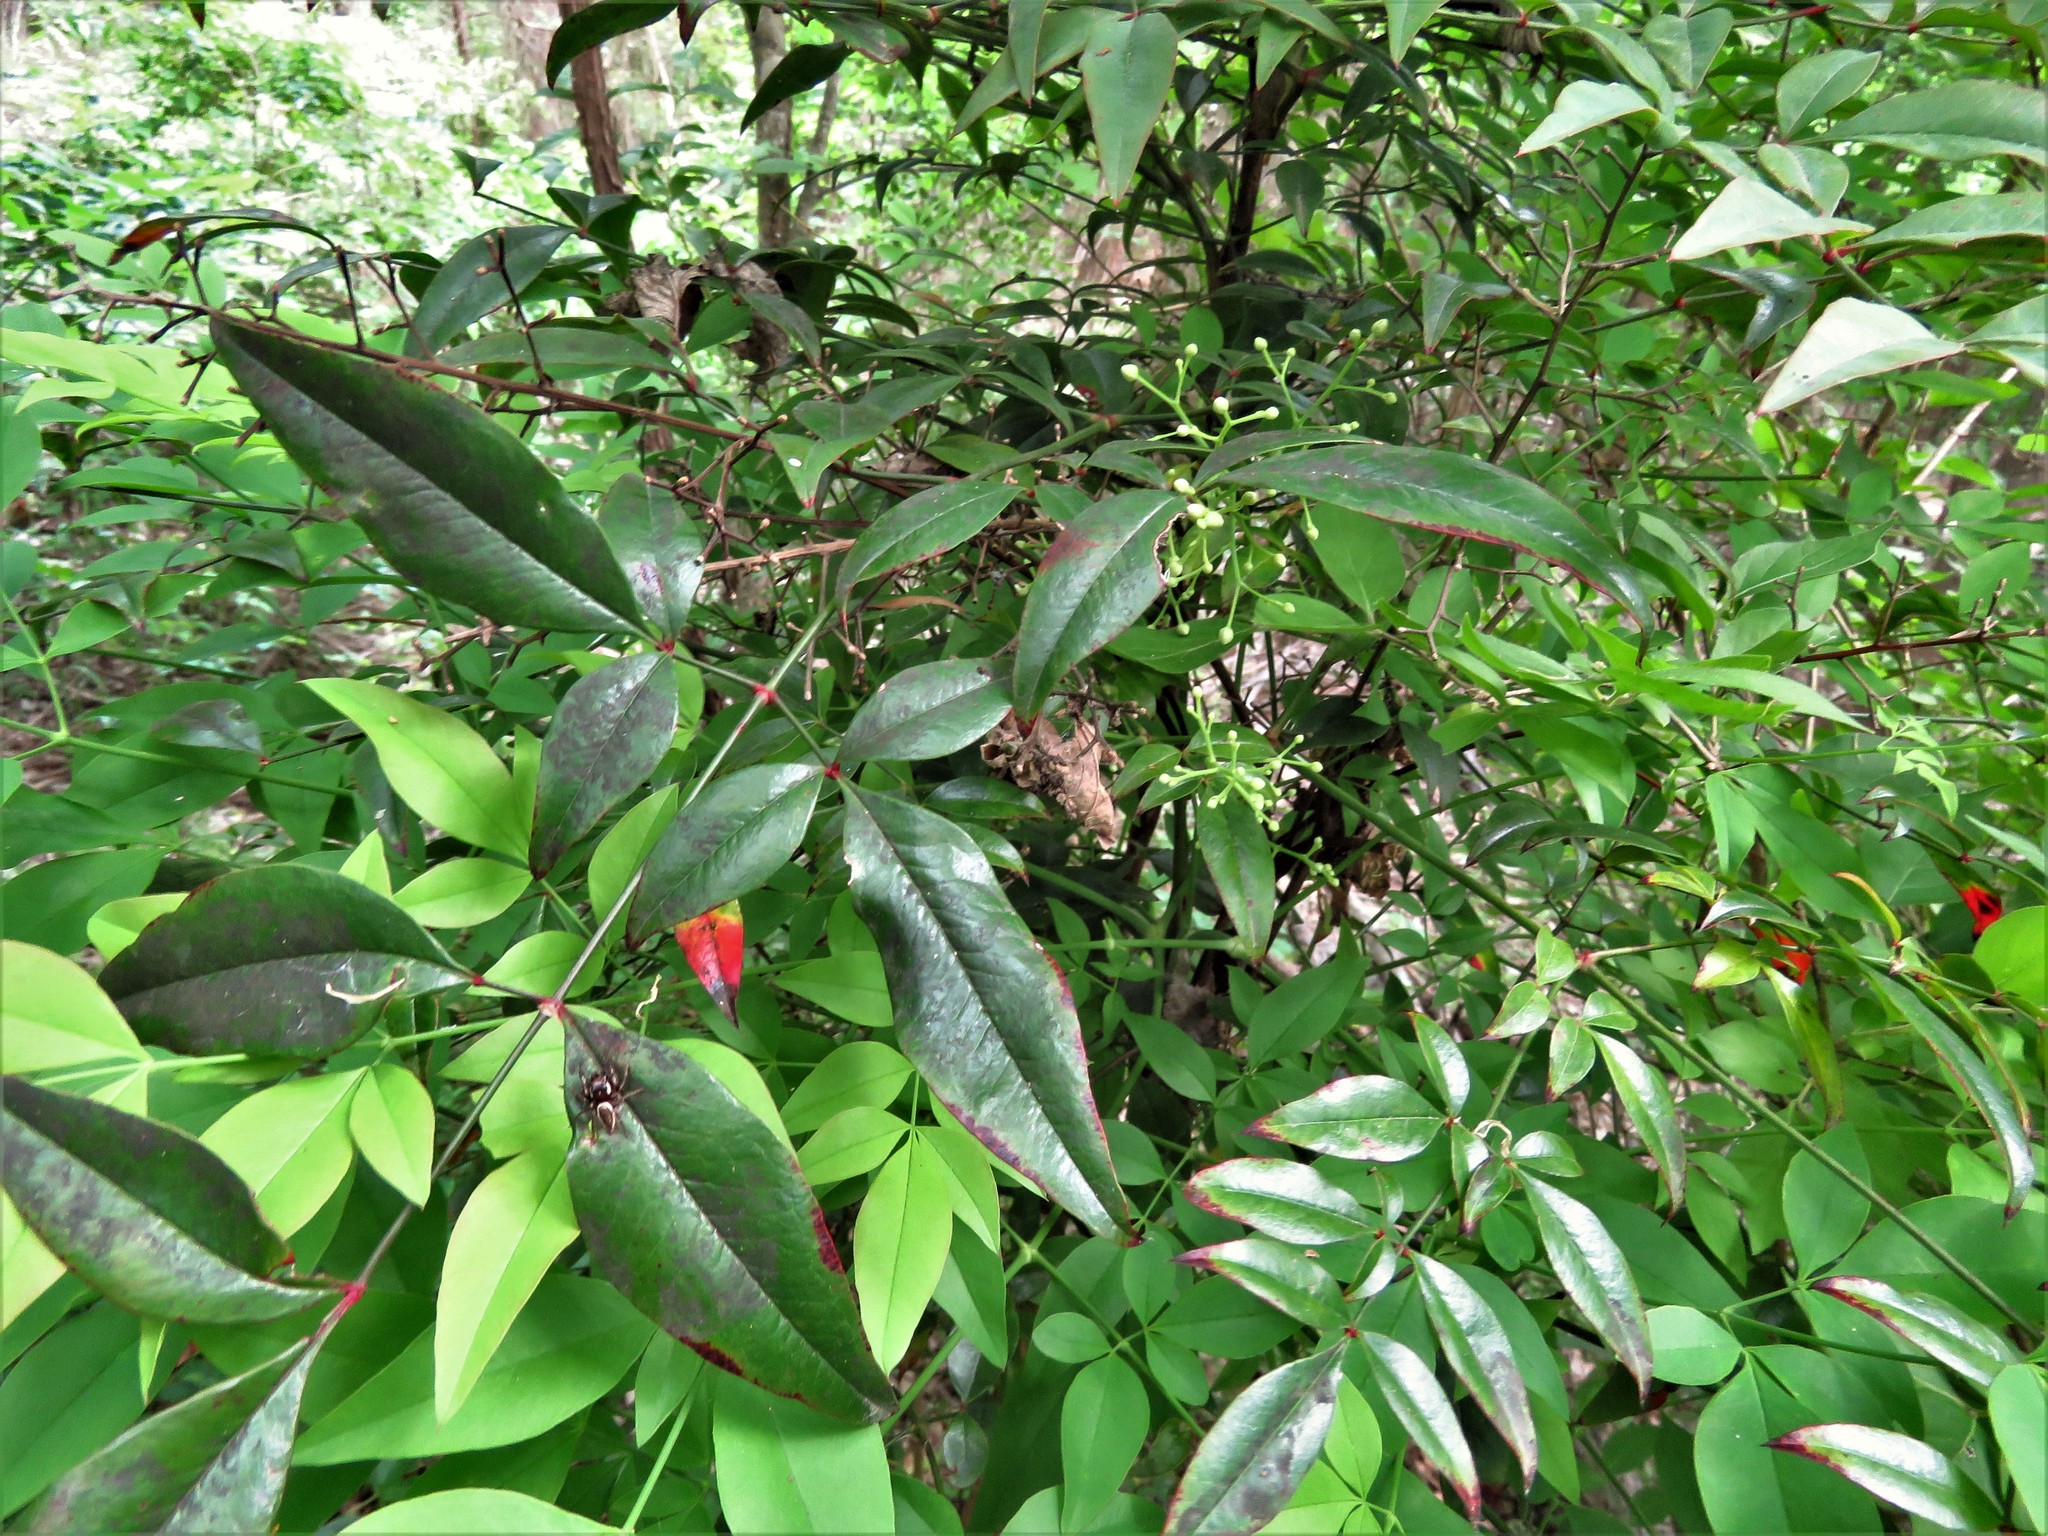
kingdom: Plantae
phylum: Tracheophyta
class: Magnoliopsida
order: Ranunculales
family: Berberidaceae
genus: Nandina
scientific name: Nandina domestica
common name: Sacred bamboo
